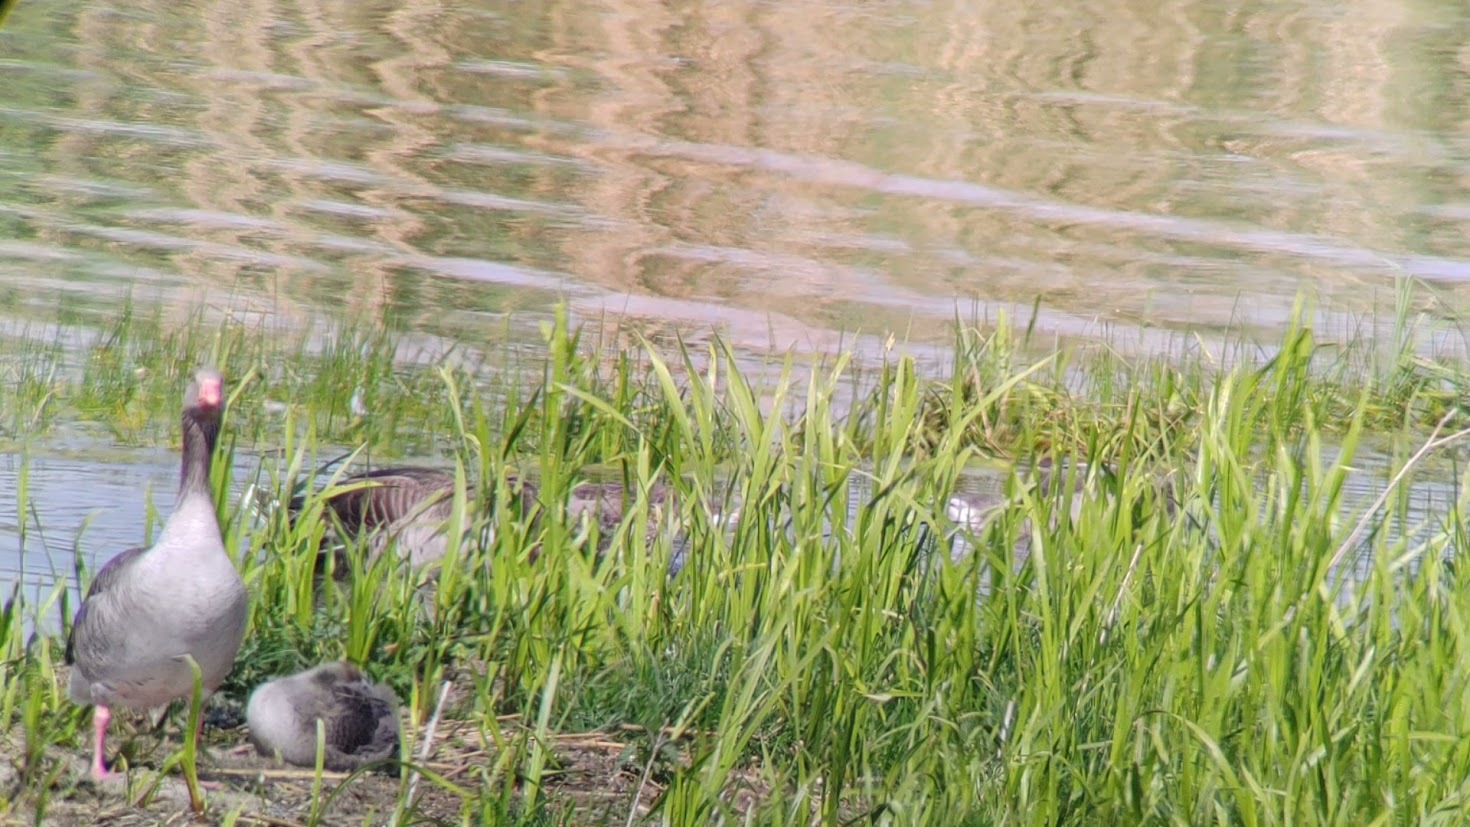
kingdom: Animalia
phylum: Chordata
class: Aves
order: Anseriformes
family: Anatidae
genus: Anser
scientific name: Anser anser
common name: Greylag goose
